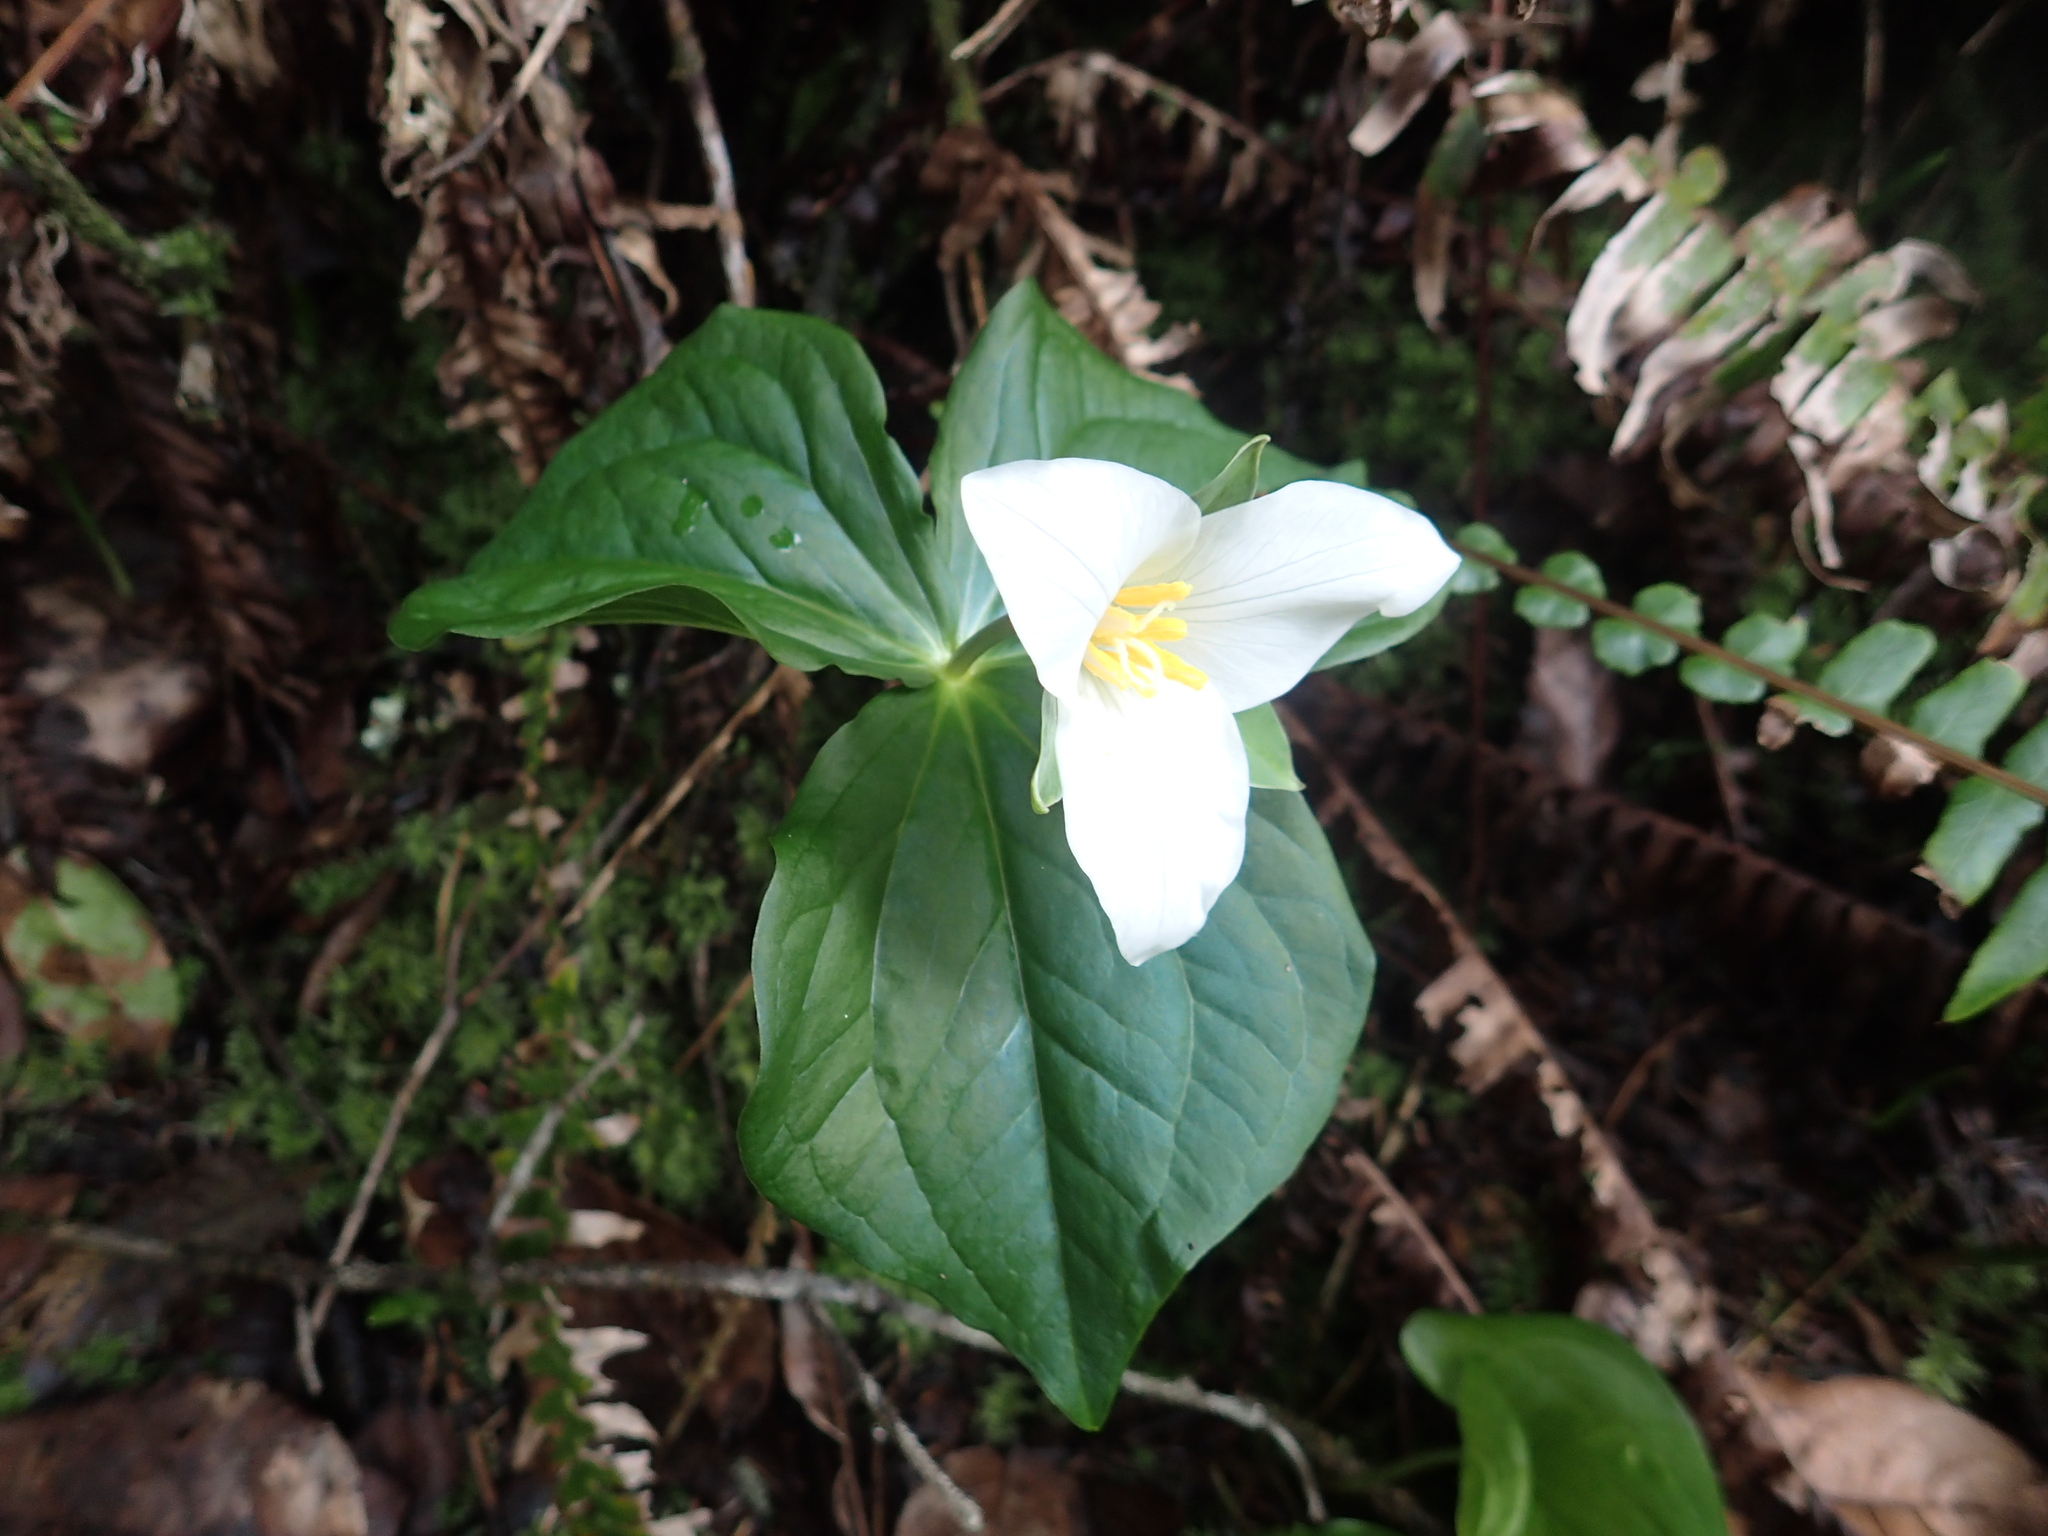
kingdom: Plantae
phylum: Tracheophyta
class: Liliopsida
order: Liliales
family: Melanthiaceae
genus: Trillium
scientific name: Trillium ovatum
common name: Pacific trillium
